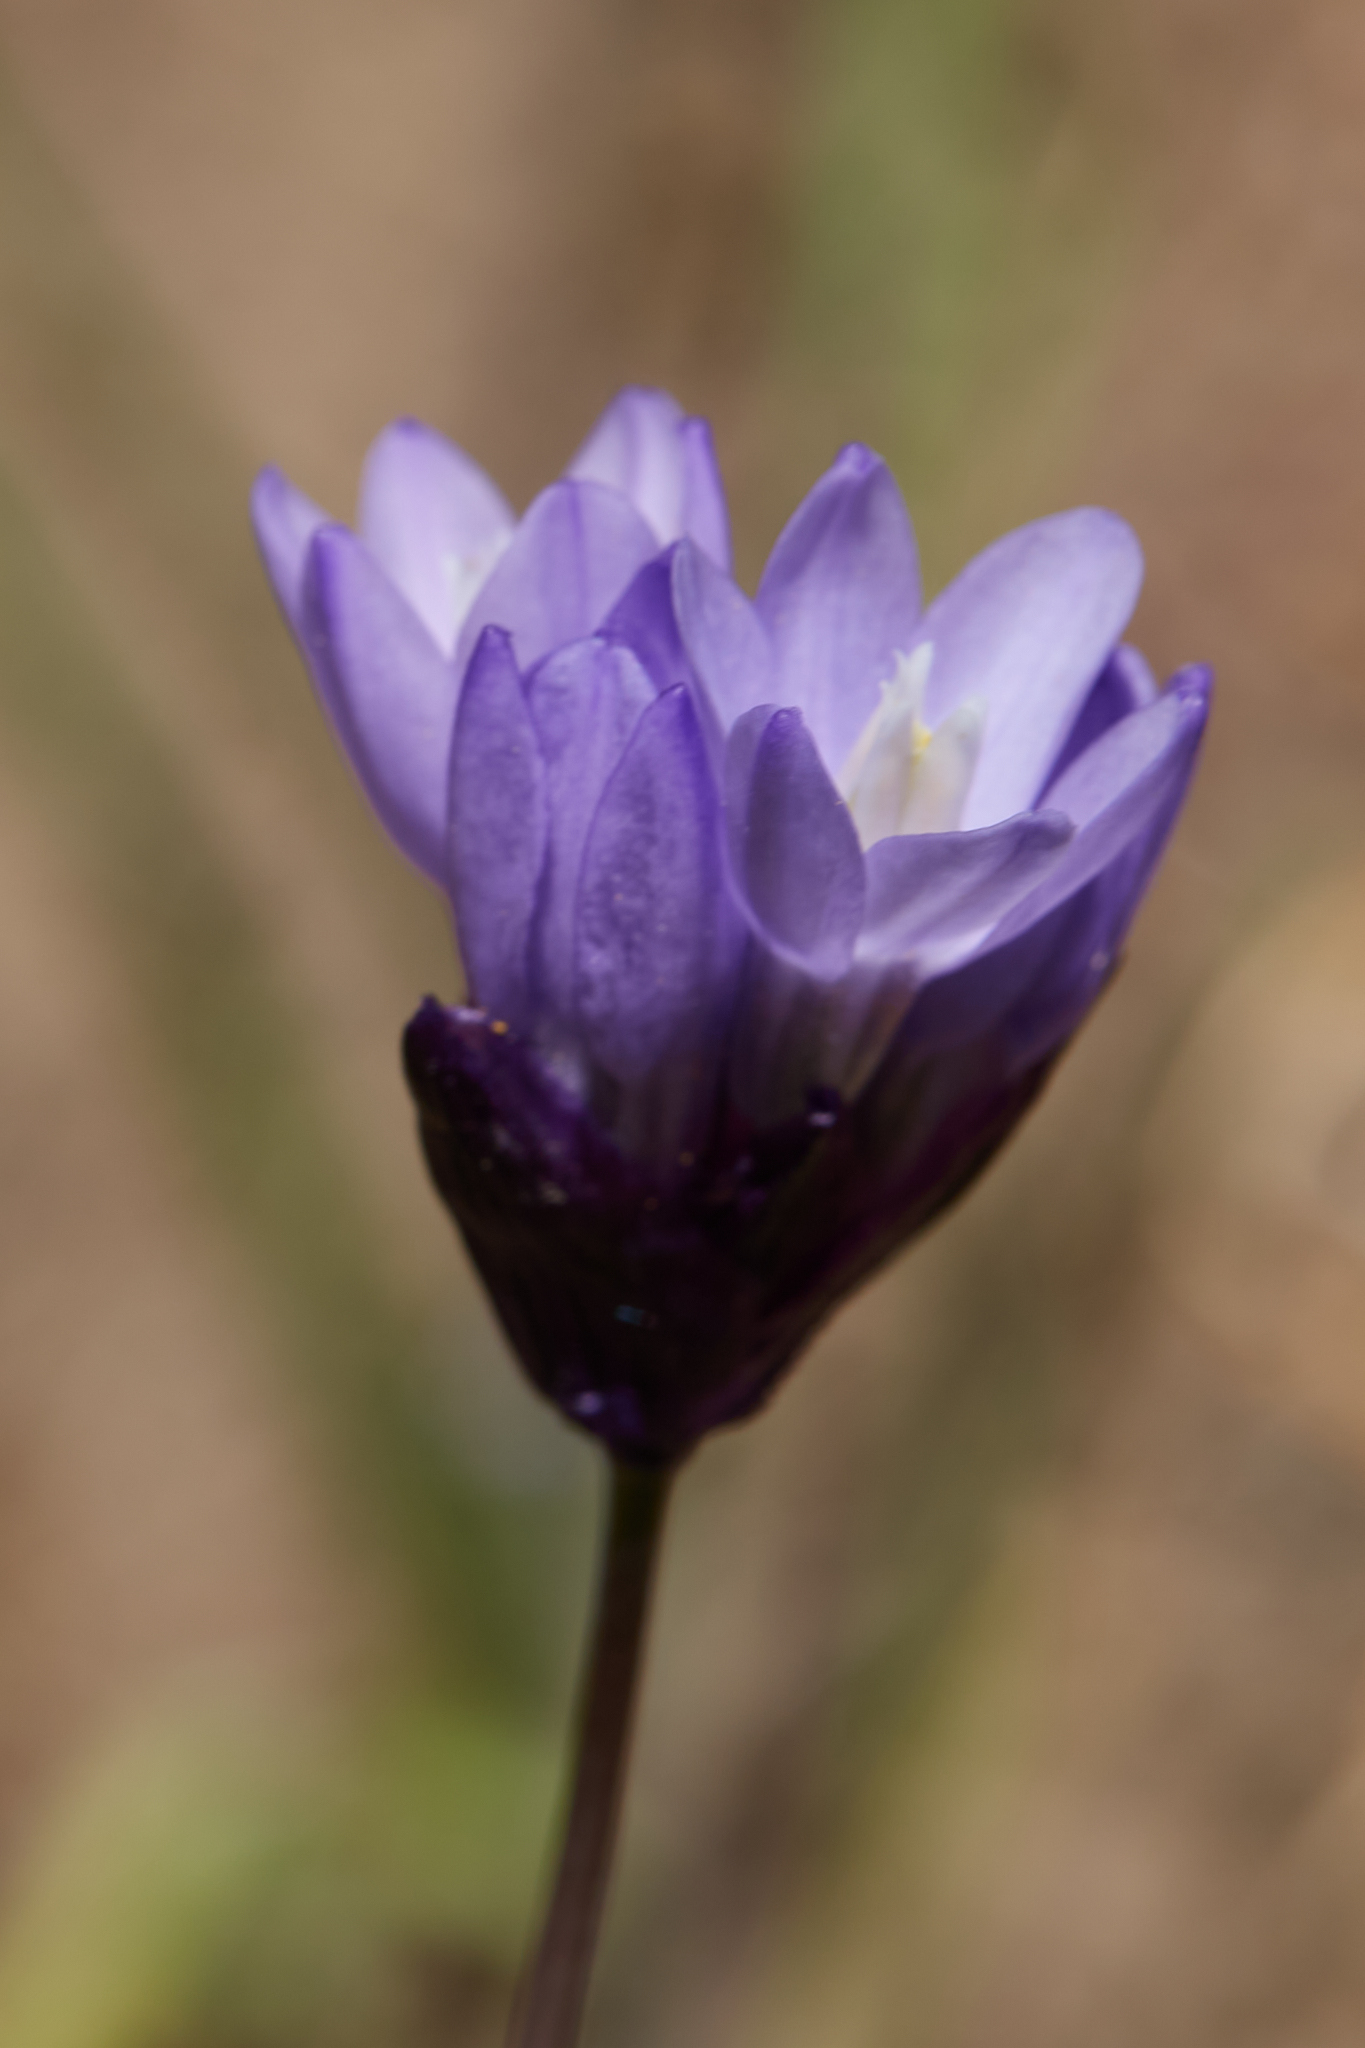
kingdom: Plantae
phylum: Tracheophyta
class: Liliopsida
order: Asparagales
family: Asparagaceae
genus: Dipterostemon
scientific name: Dipterostemon capitatus
